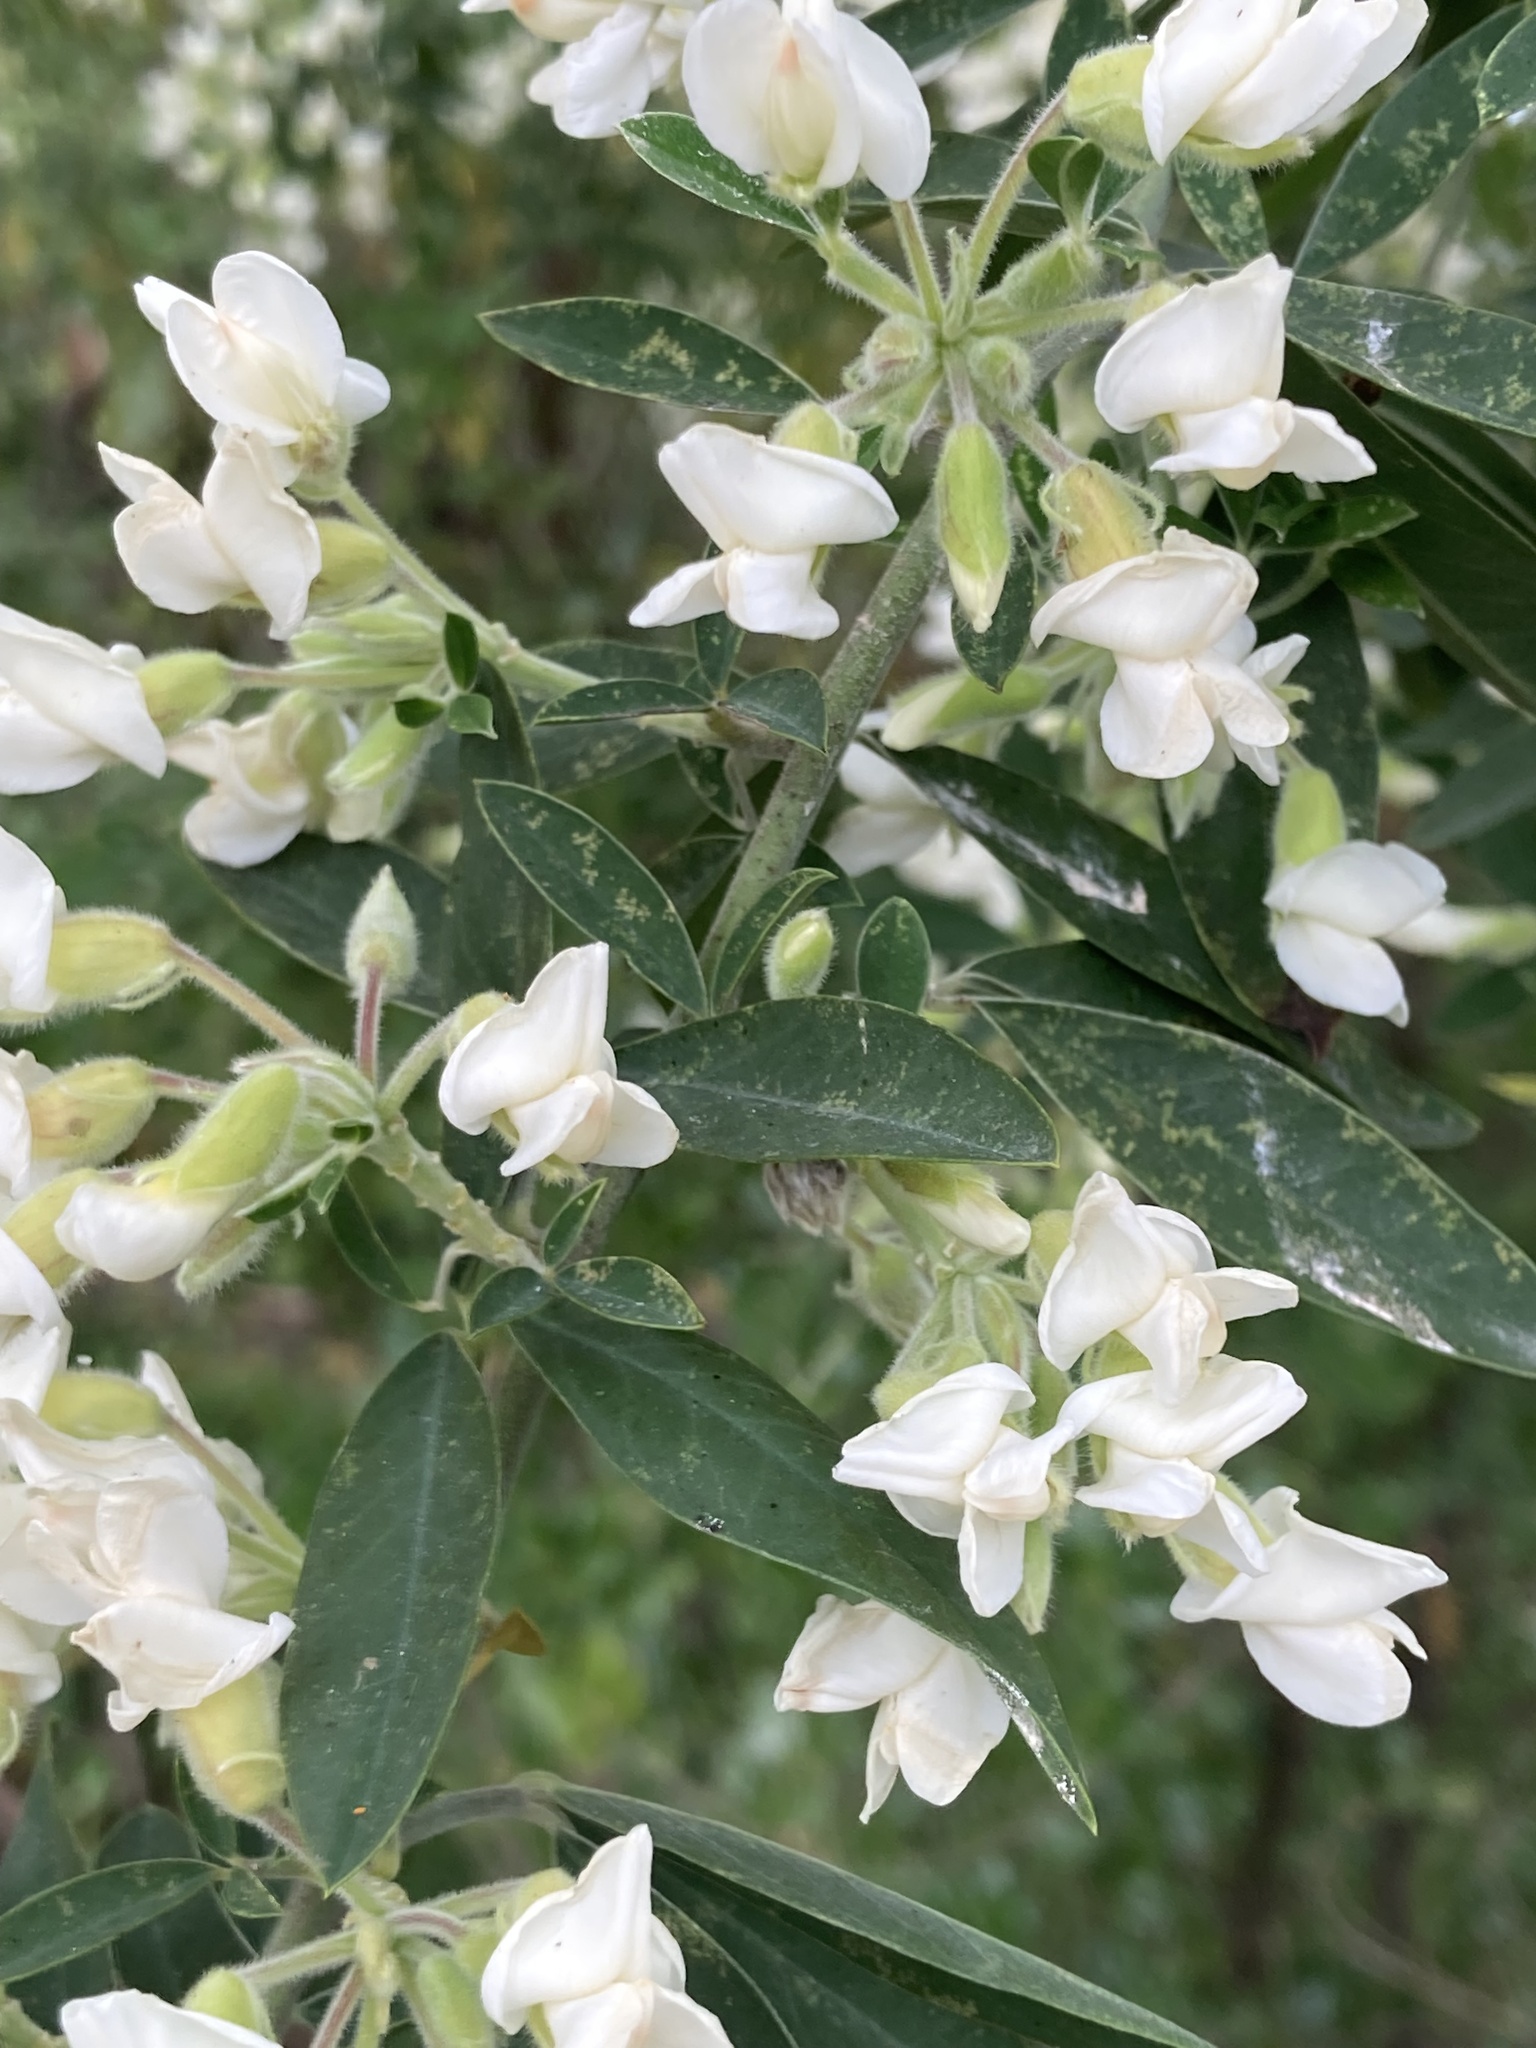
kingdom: Plantae
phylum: Tracheophyta
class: Magnoliopsida
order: Fabales
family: Fabaceae
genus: Chamaecytisus
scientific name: Chamaecytisus prolifer
